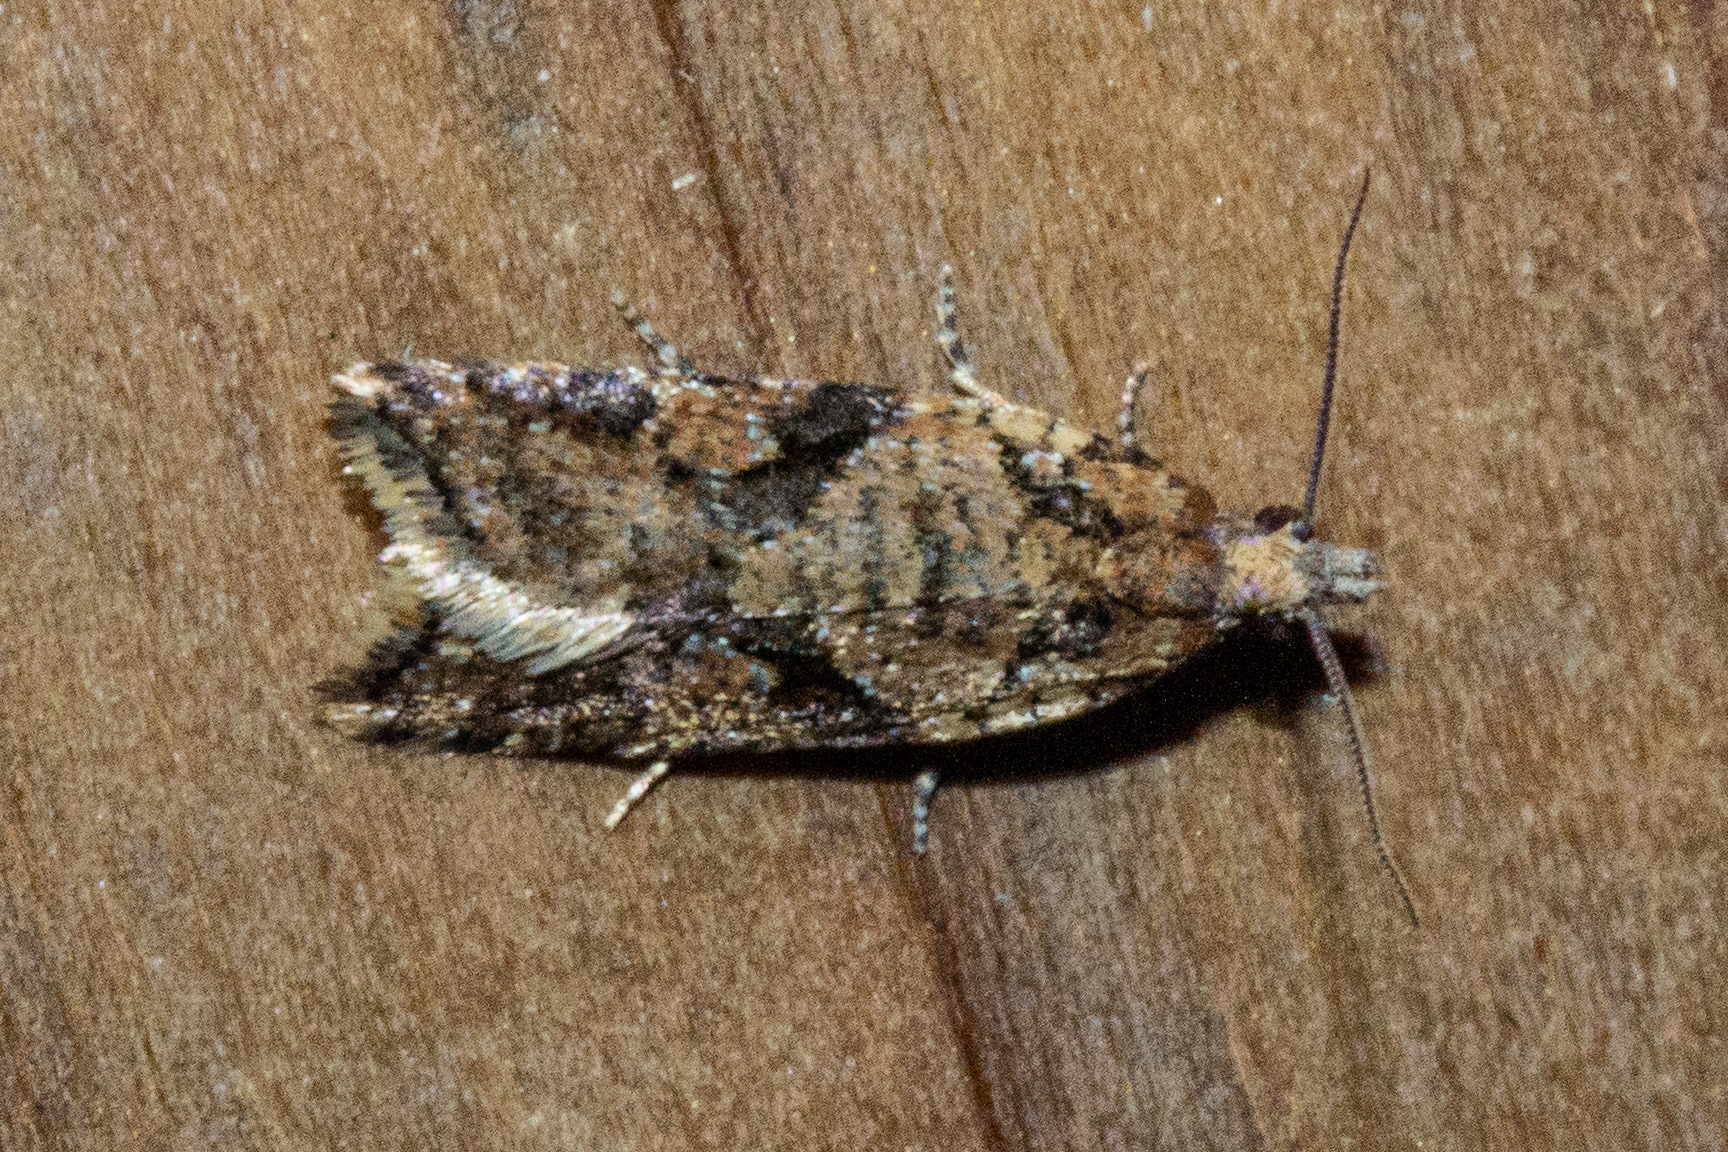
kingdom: Animalia
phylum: Arthropoda
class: Insecta
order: Lepidoptera
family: Tortricidae
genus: Capua
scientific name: Capua semiferana
